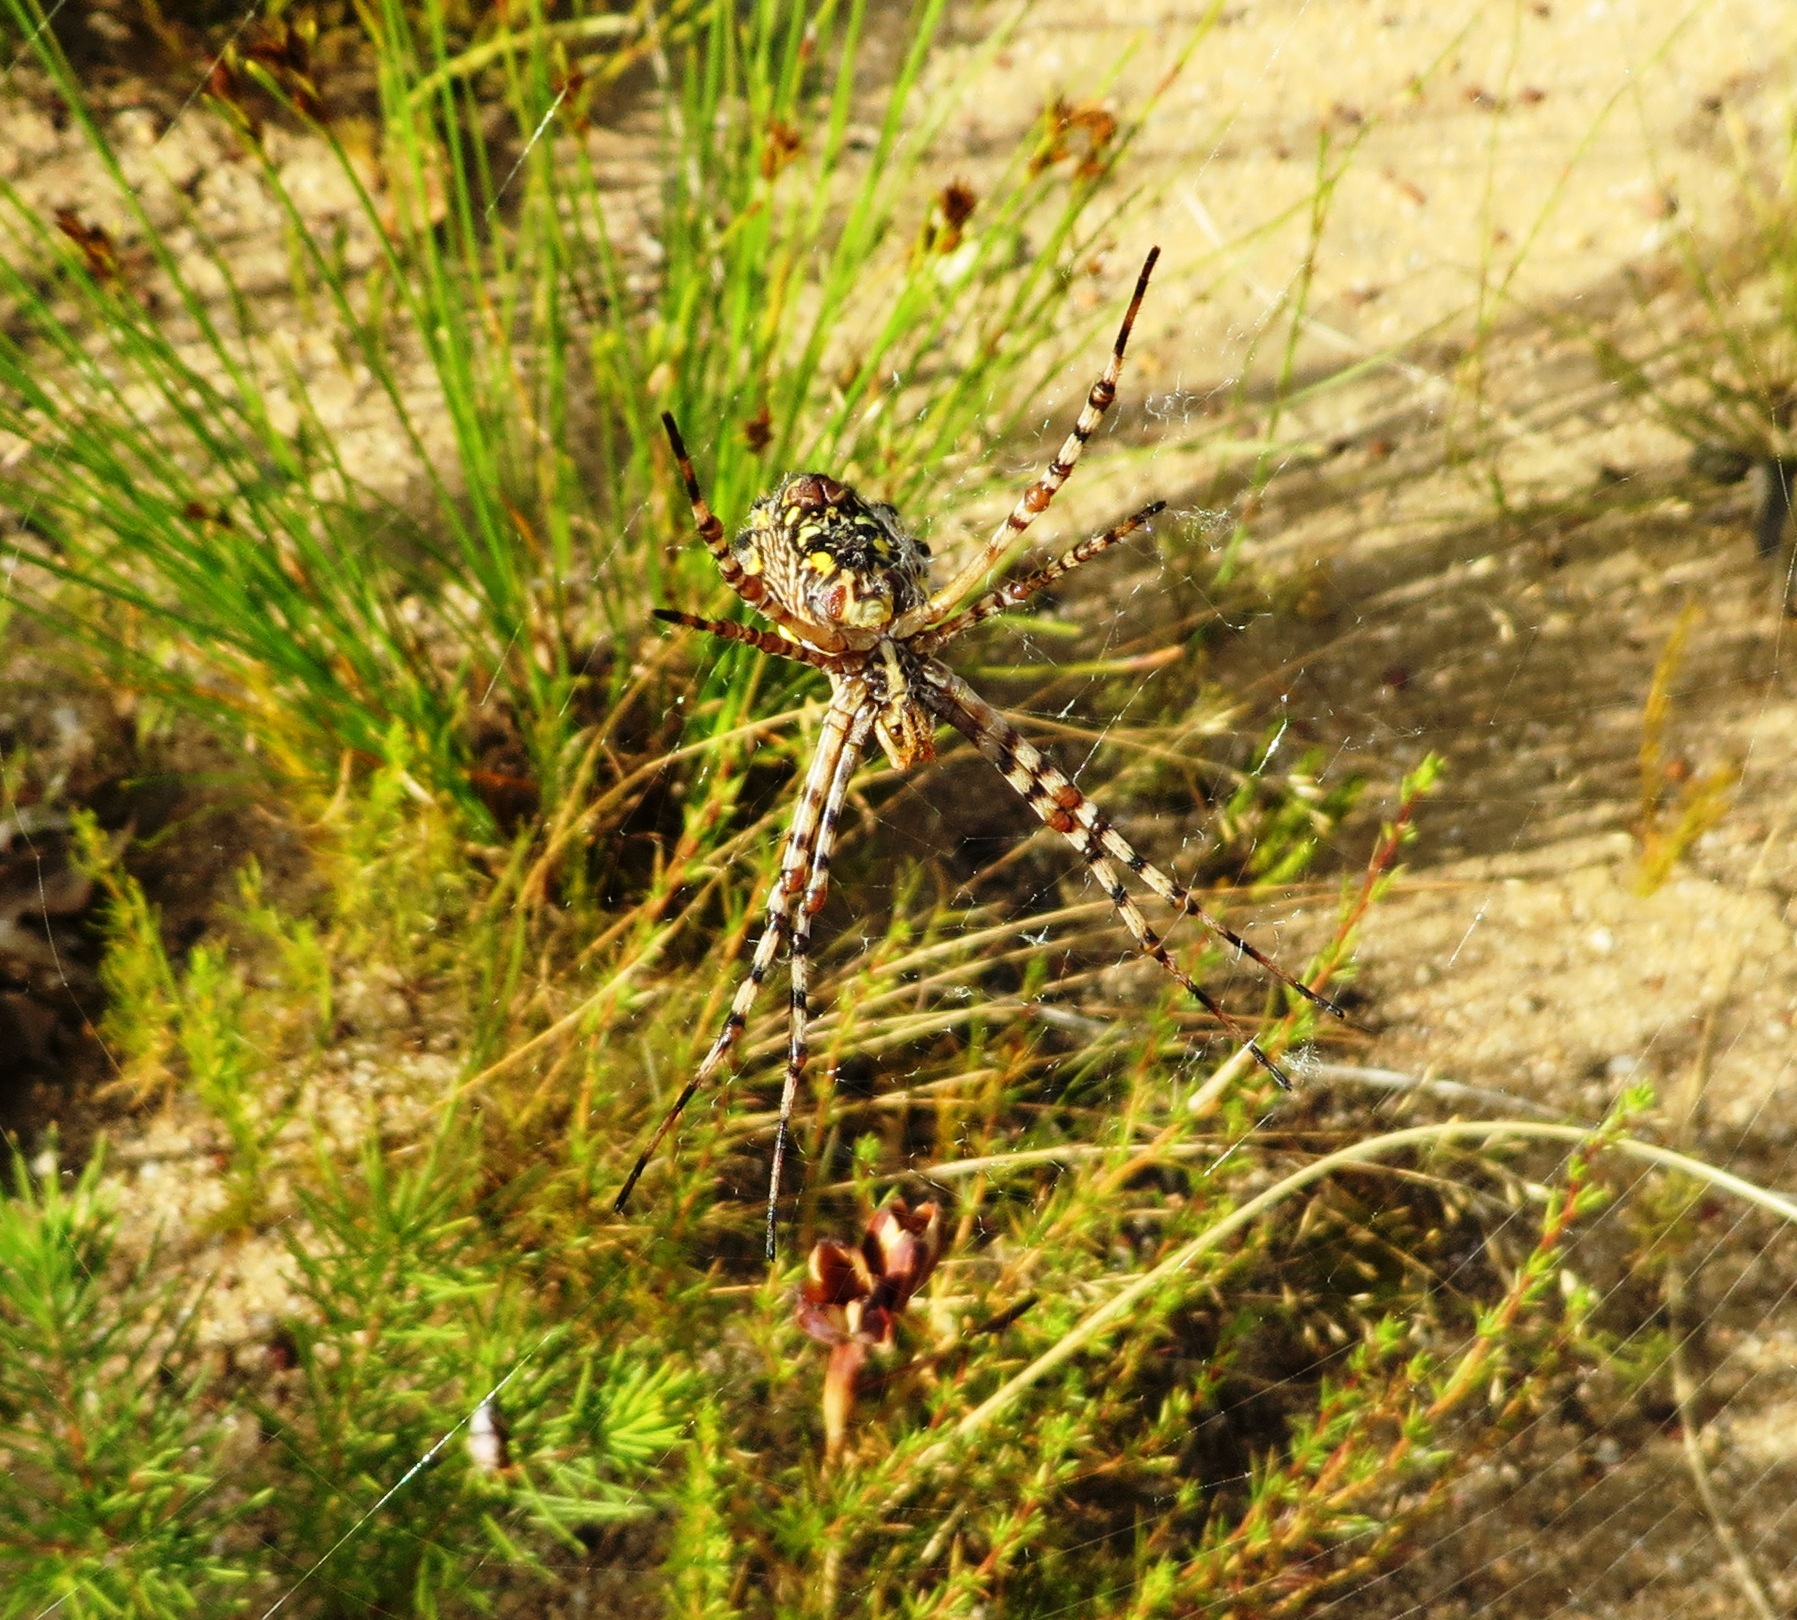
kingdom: Animalia
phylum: Arthropoda
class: Arachnida
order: Araneae
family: Araneidae
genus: Argiope
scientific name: Argiope australis
